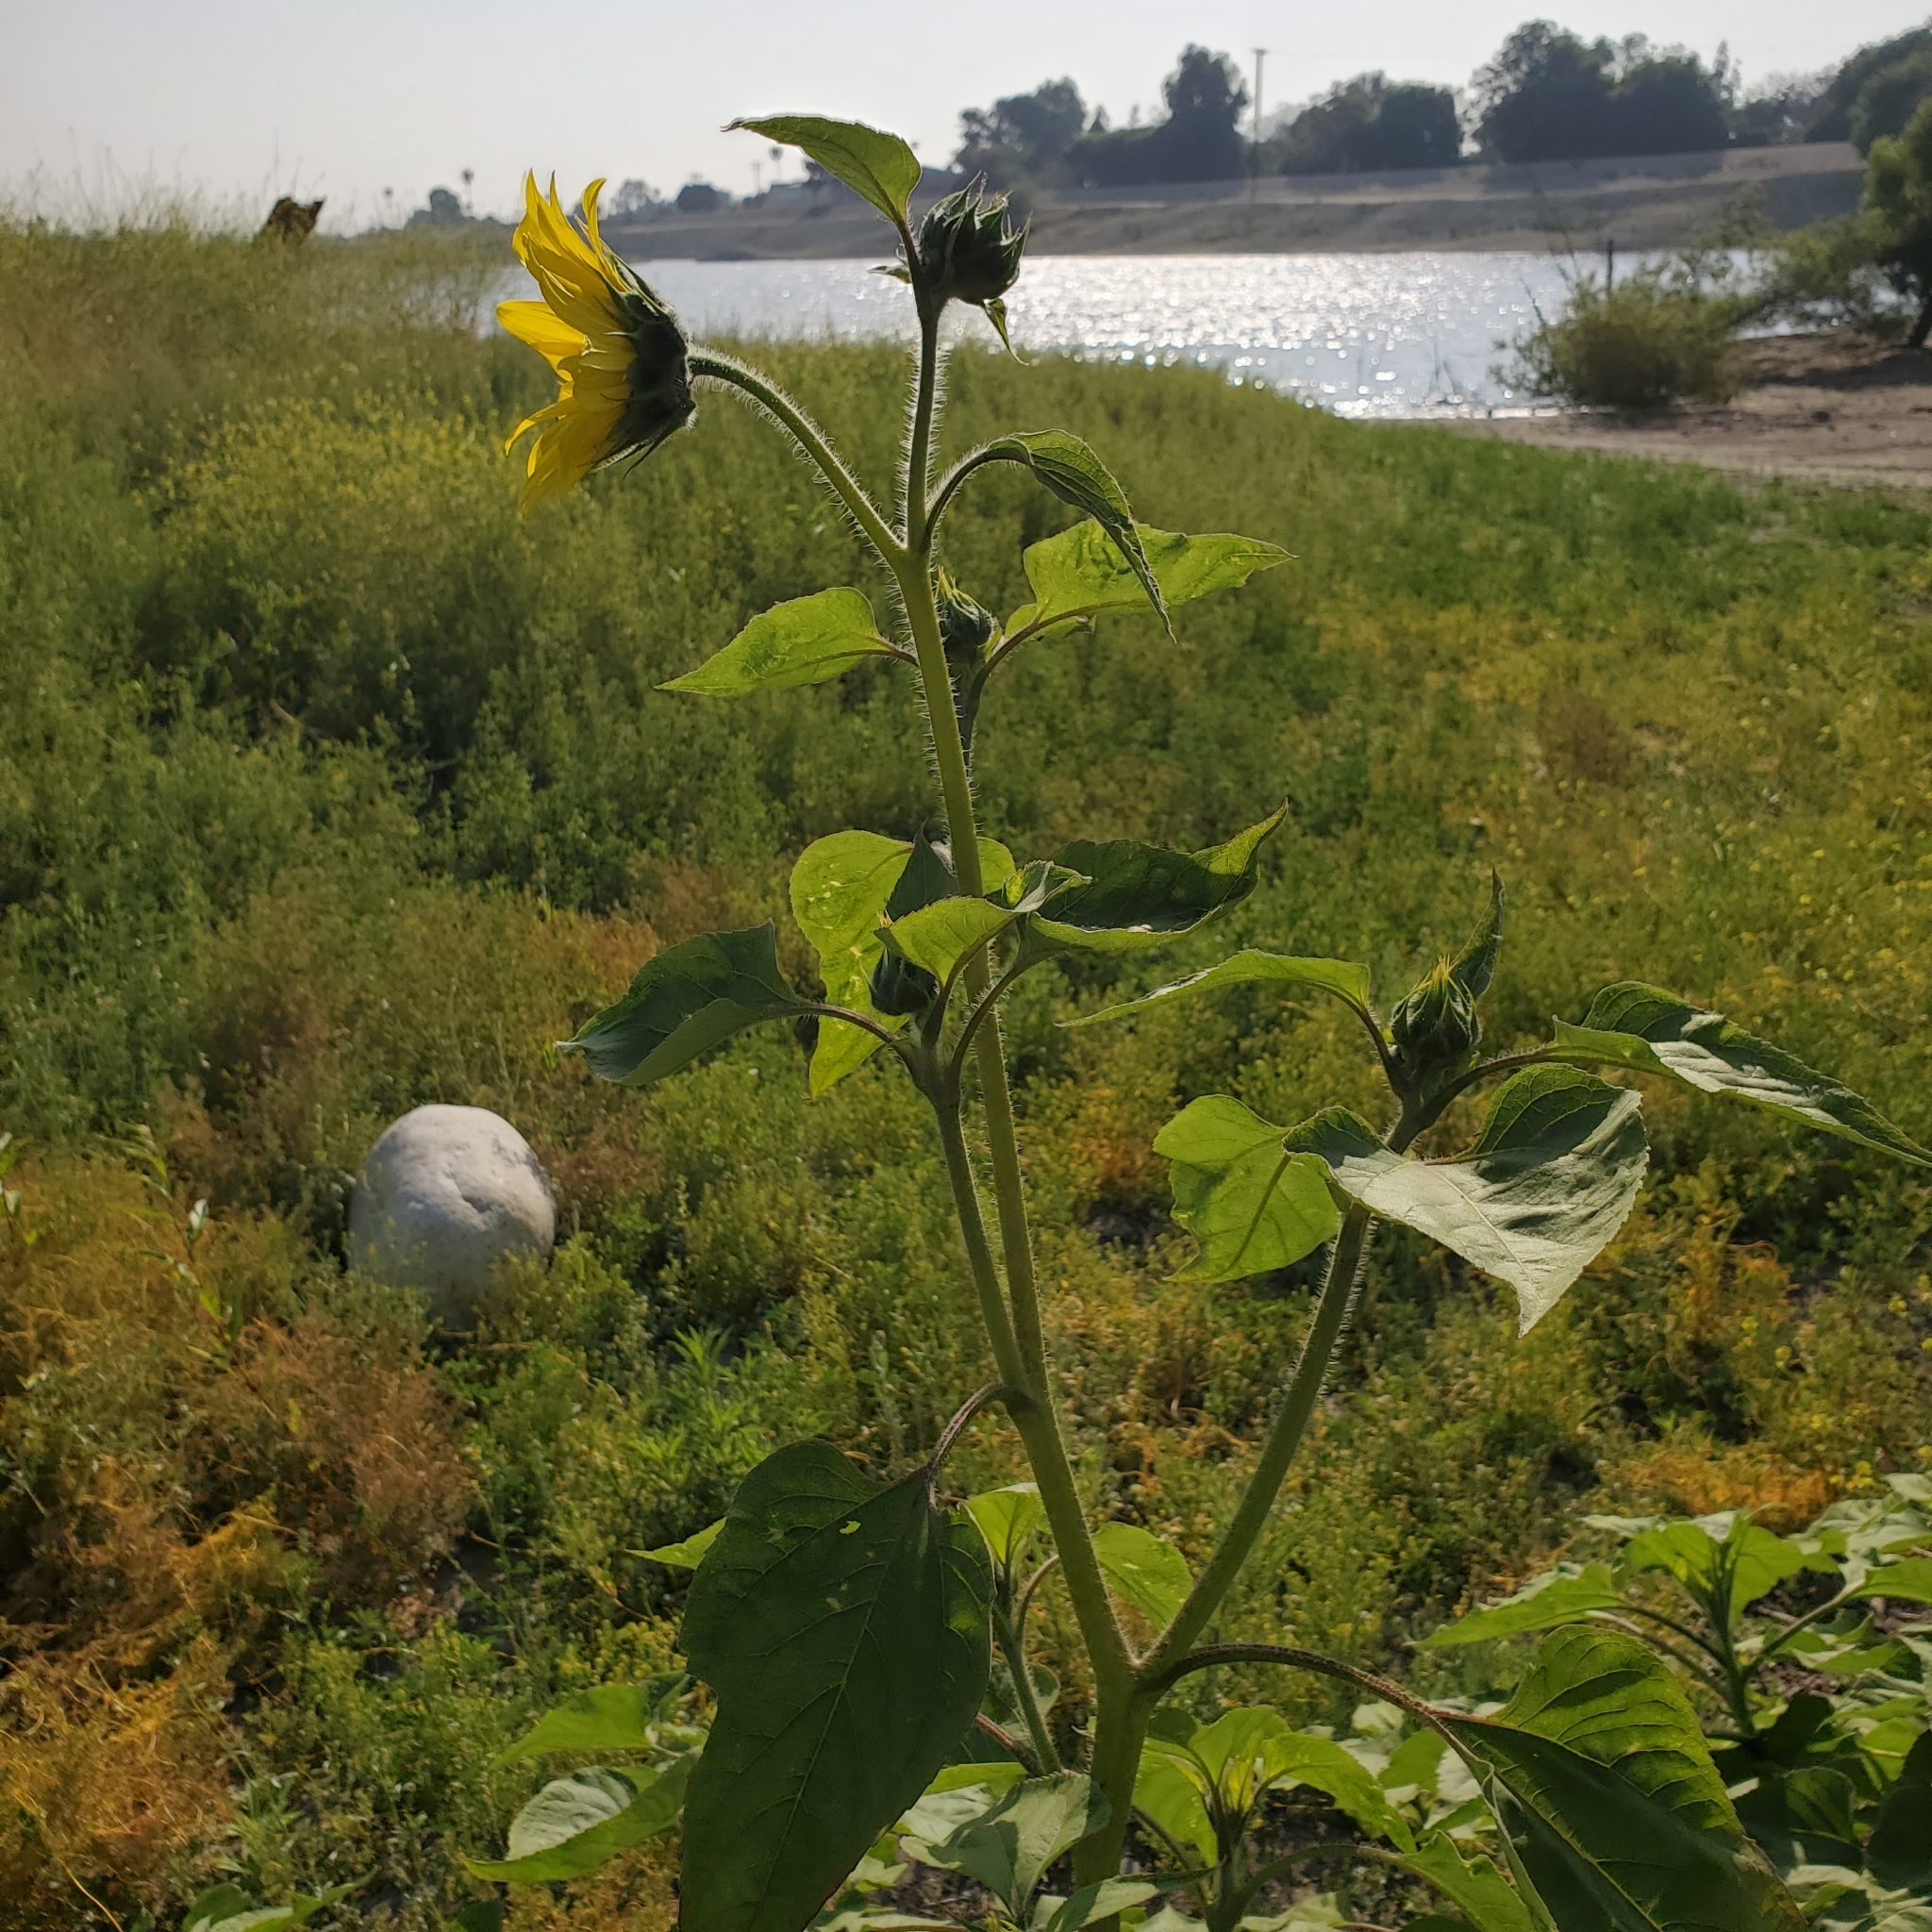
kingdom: Plantae
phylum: Tracheophyta
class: Magnoliopsida
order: Asterales
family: Asteraceae
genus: Helianthus
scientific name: Helianthus annuus
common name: Sunflower
